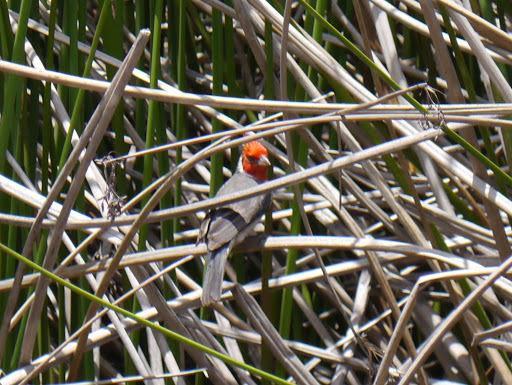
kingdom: Animalia
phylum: Chordata
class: Aves
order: Passeriformes
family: Thraupidae
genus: Paroaria
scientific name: Paroaria coronata
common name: Red-crested cardinal
